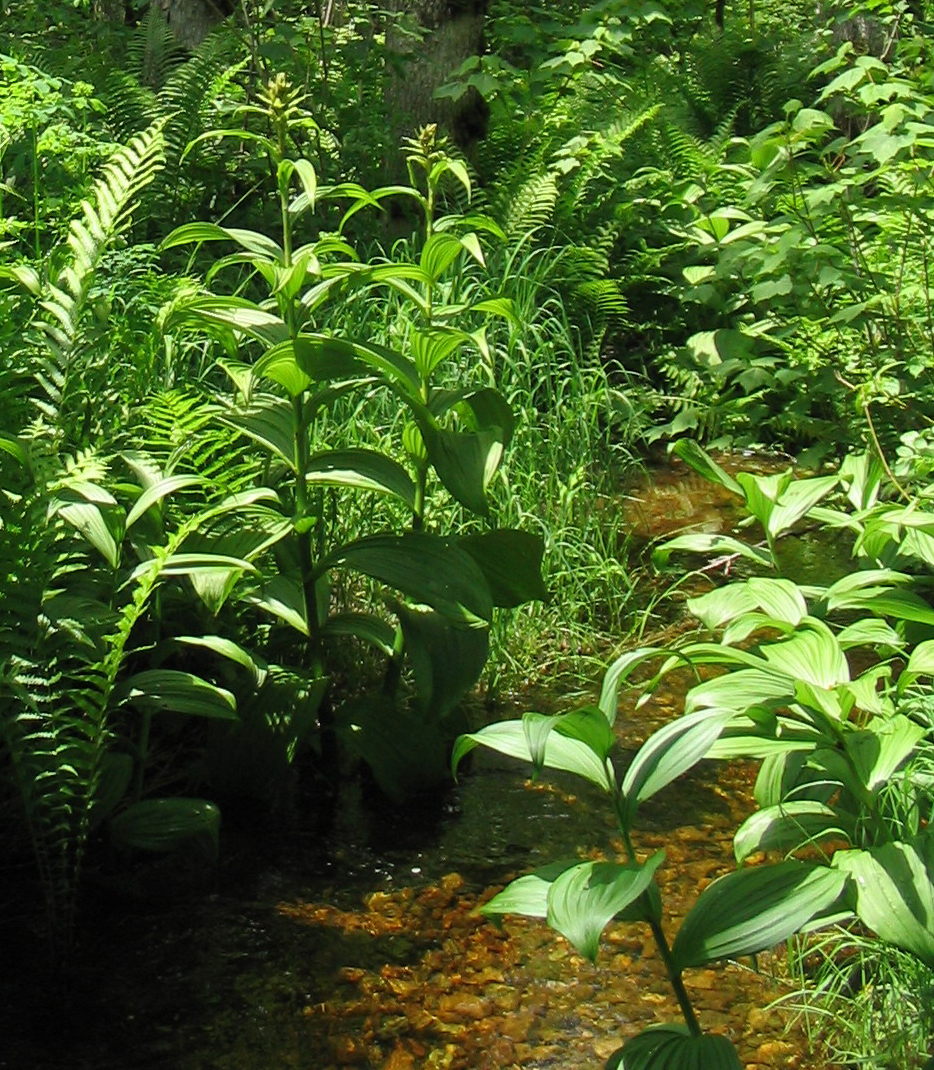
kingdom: Plantae
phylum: Tracheophyta
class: Liliopsida
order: Liliales
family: Melanthiaceae
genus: Veratrum
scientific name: Veratrum viride
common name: American false hellebore
